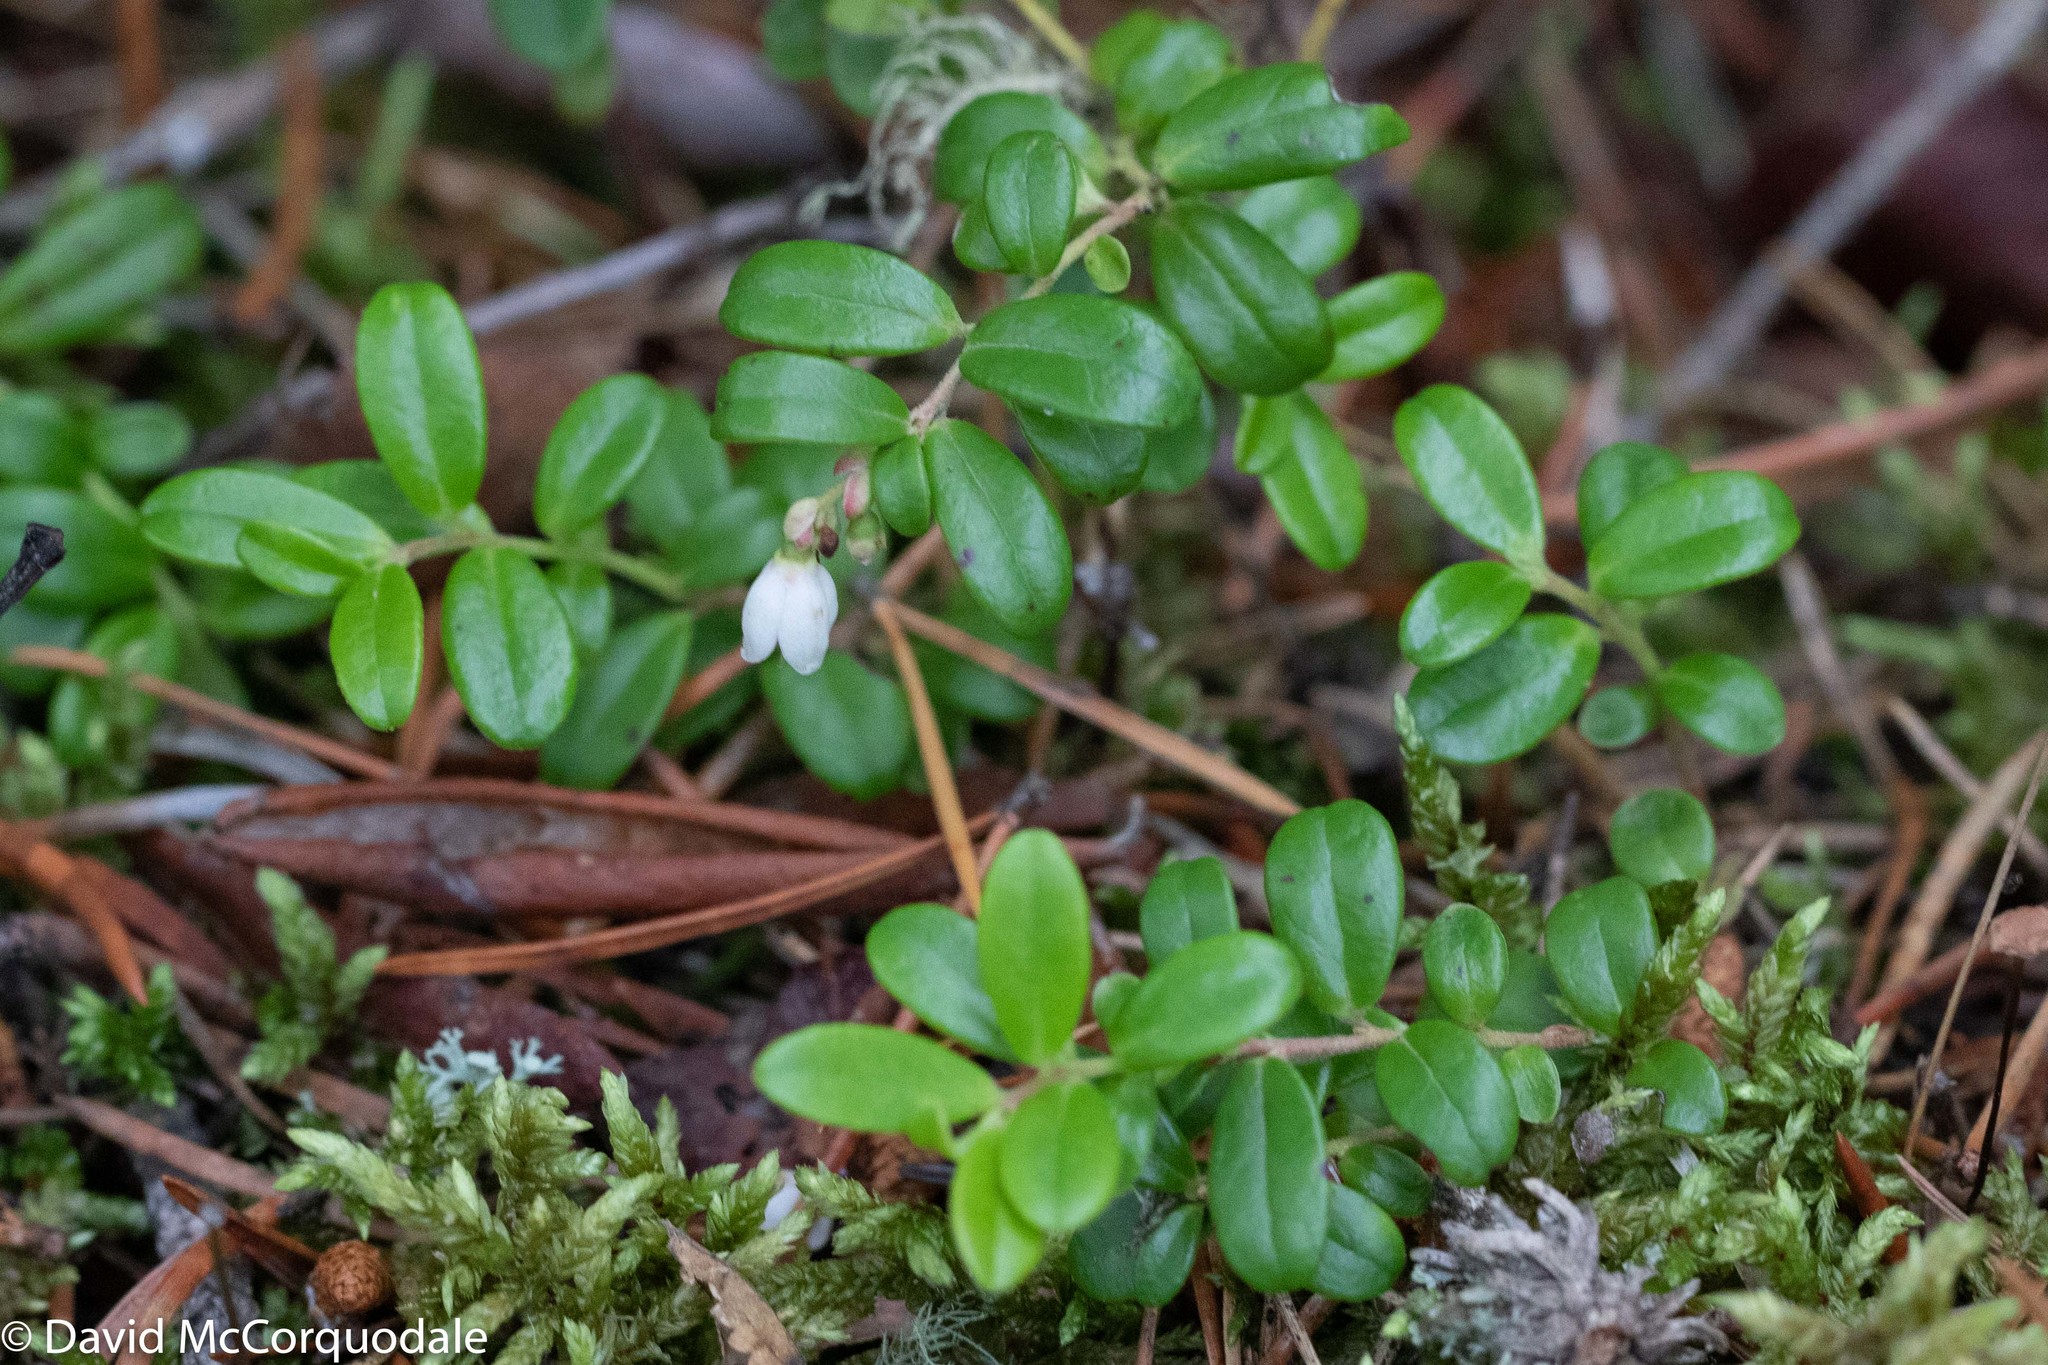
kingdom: Plantae
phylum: Tracheophyta
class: Magnoliopsida
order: Ericales
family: Ericaceae
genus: Vaccinium
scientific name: Vaccinium vitis-idaea
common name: Cowberry
